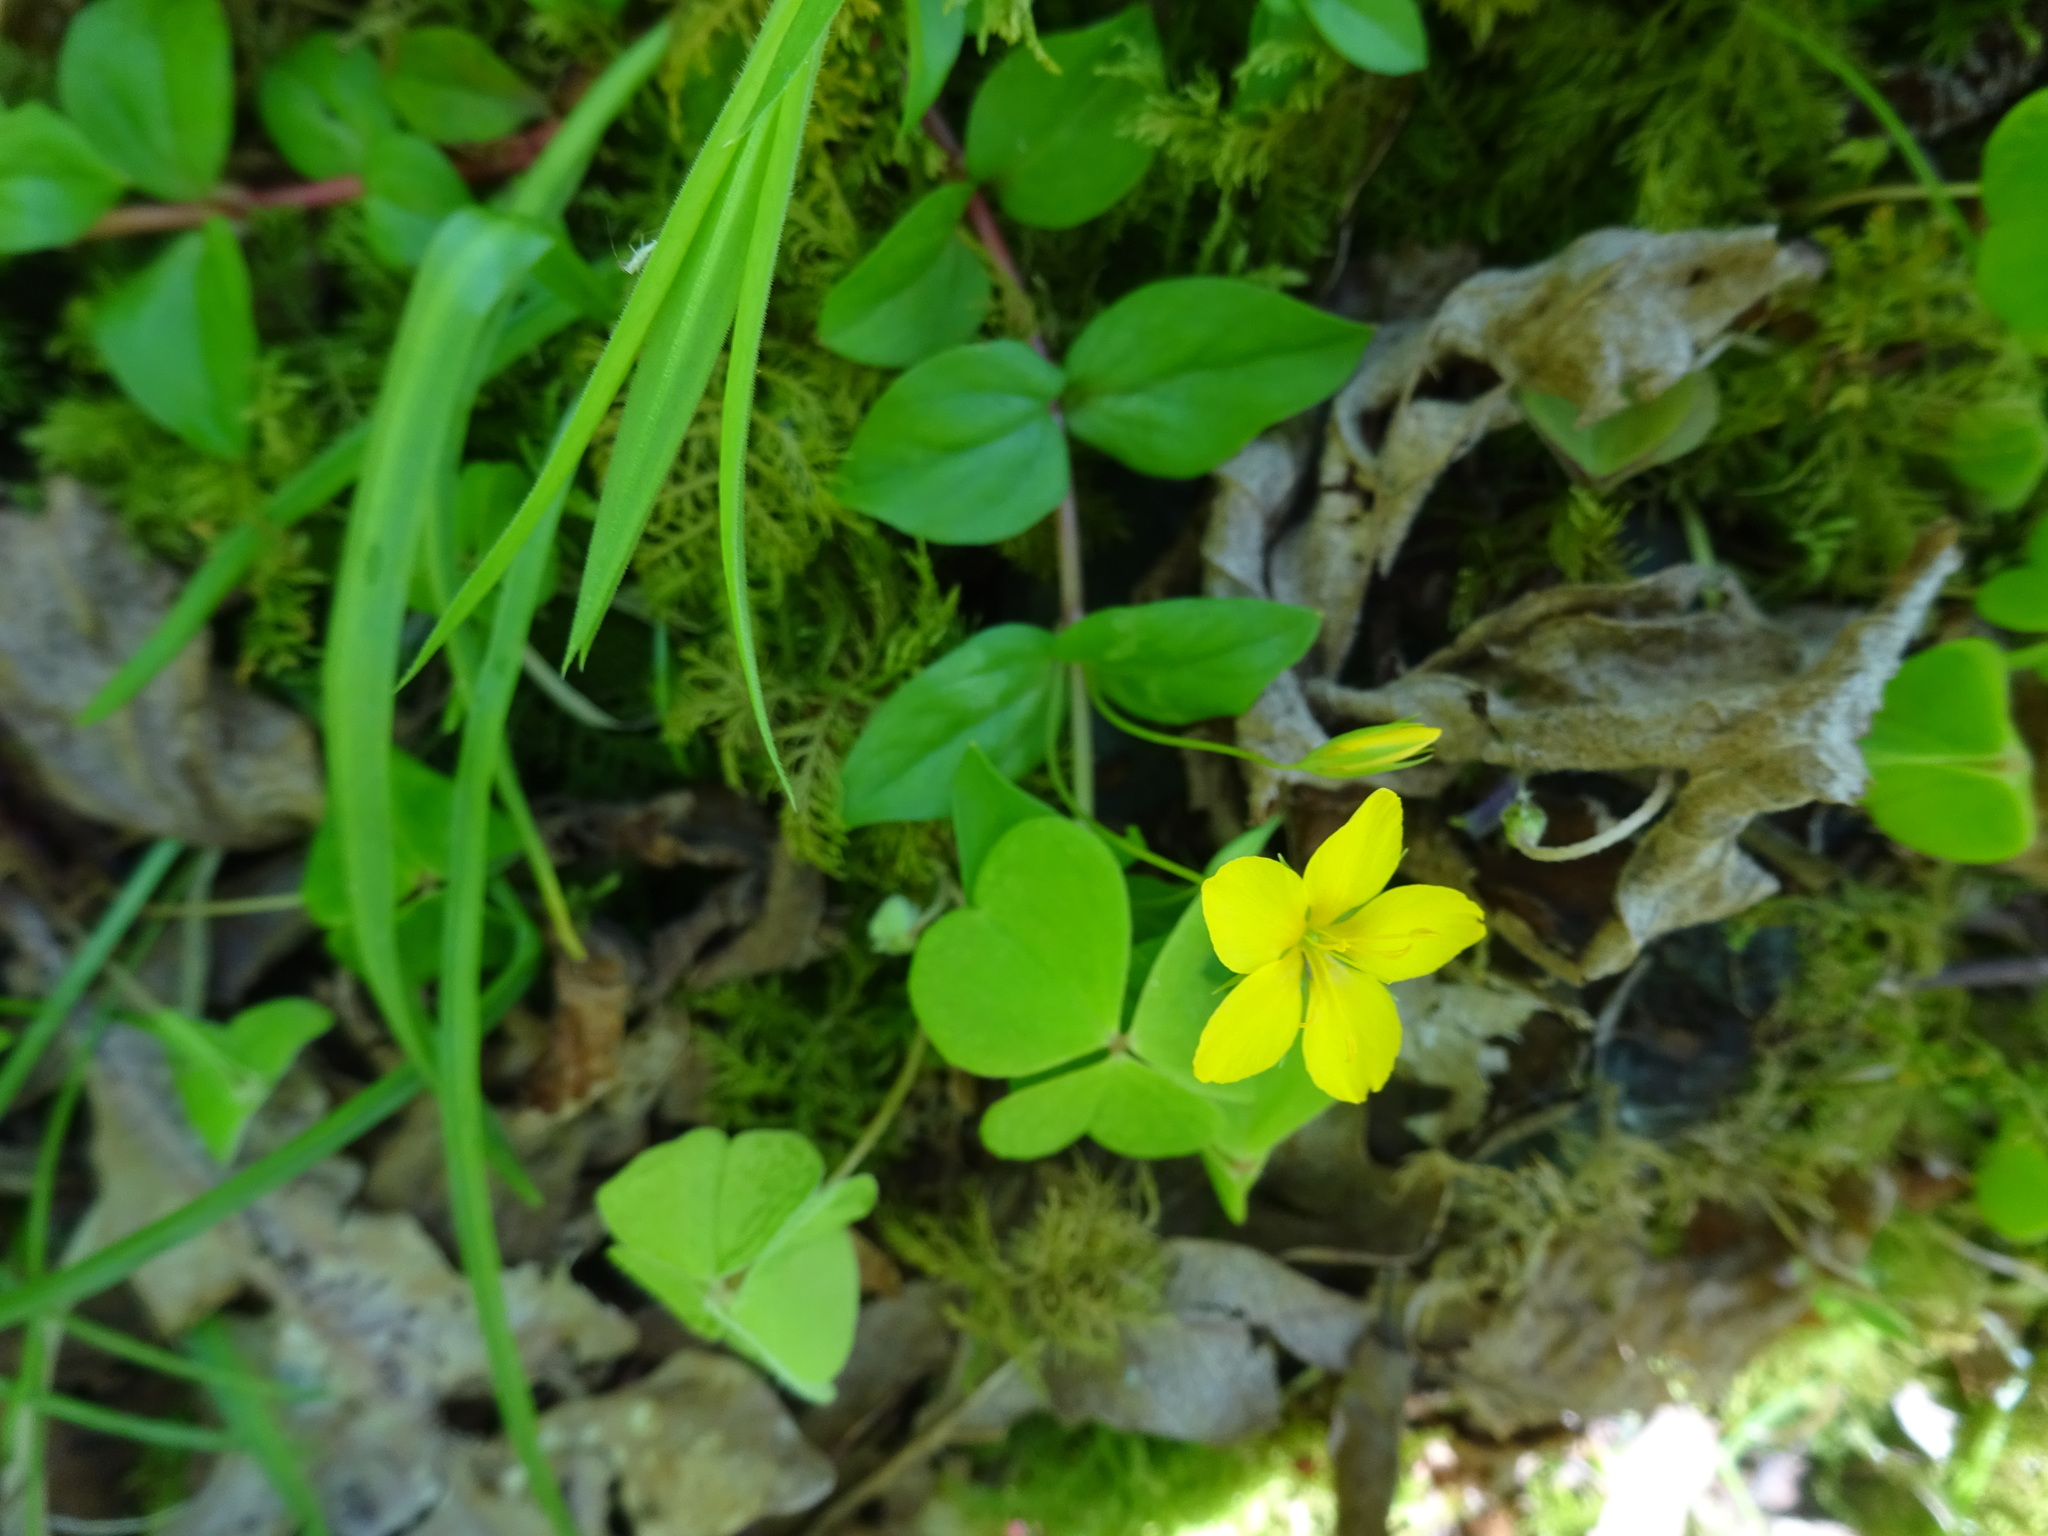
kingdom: Plantae
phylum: Tracheophyta
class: Magnoliopsida
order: Ericales
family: Primulaceae
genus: Lysimachia
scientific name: Lysimachia nemorum
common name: Yellow pimpernel
